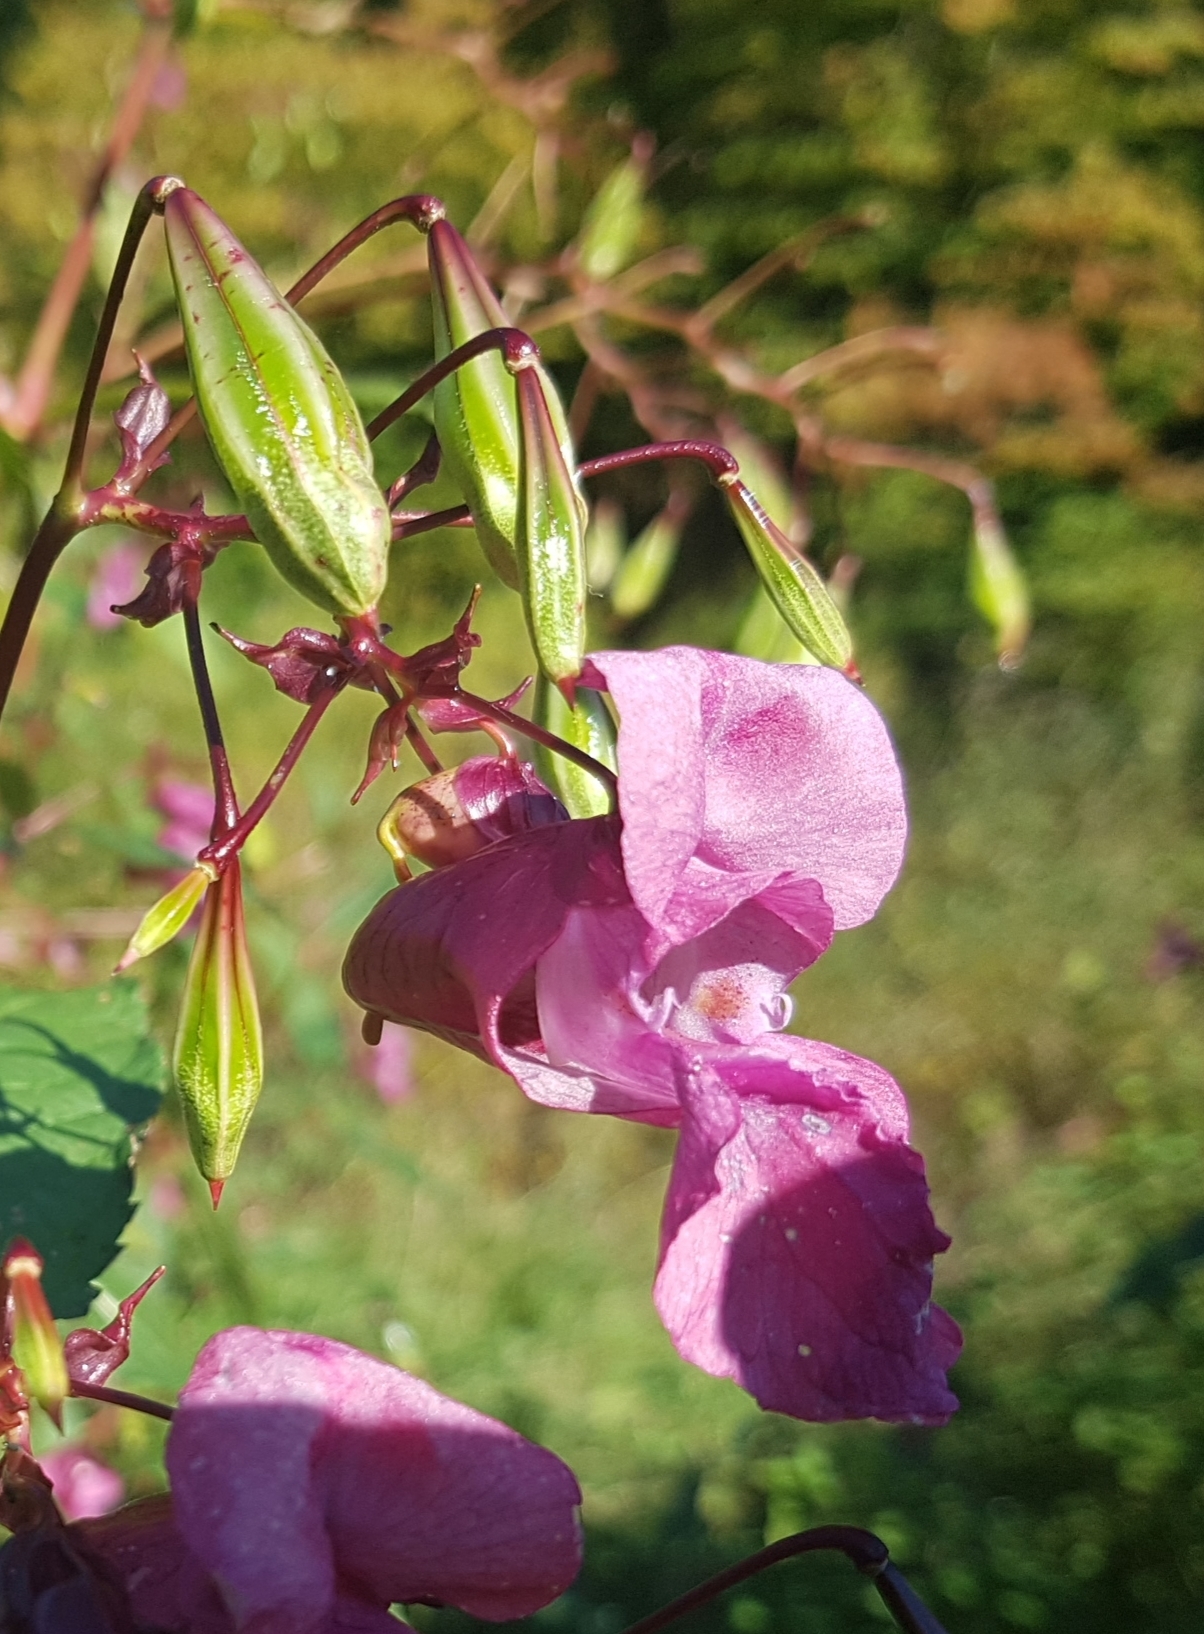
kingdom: Plantae
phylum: Tracheophyta
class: Magnoliopsida
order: Ericales
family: Balsaminaceae
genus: Impatiens
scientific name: Impatiens glandulifera
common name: Himalayan balsam
